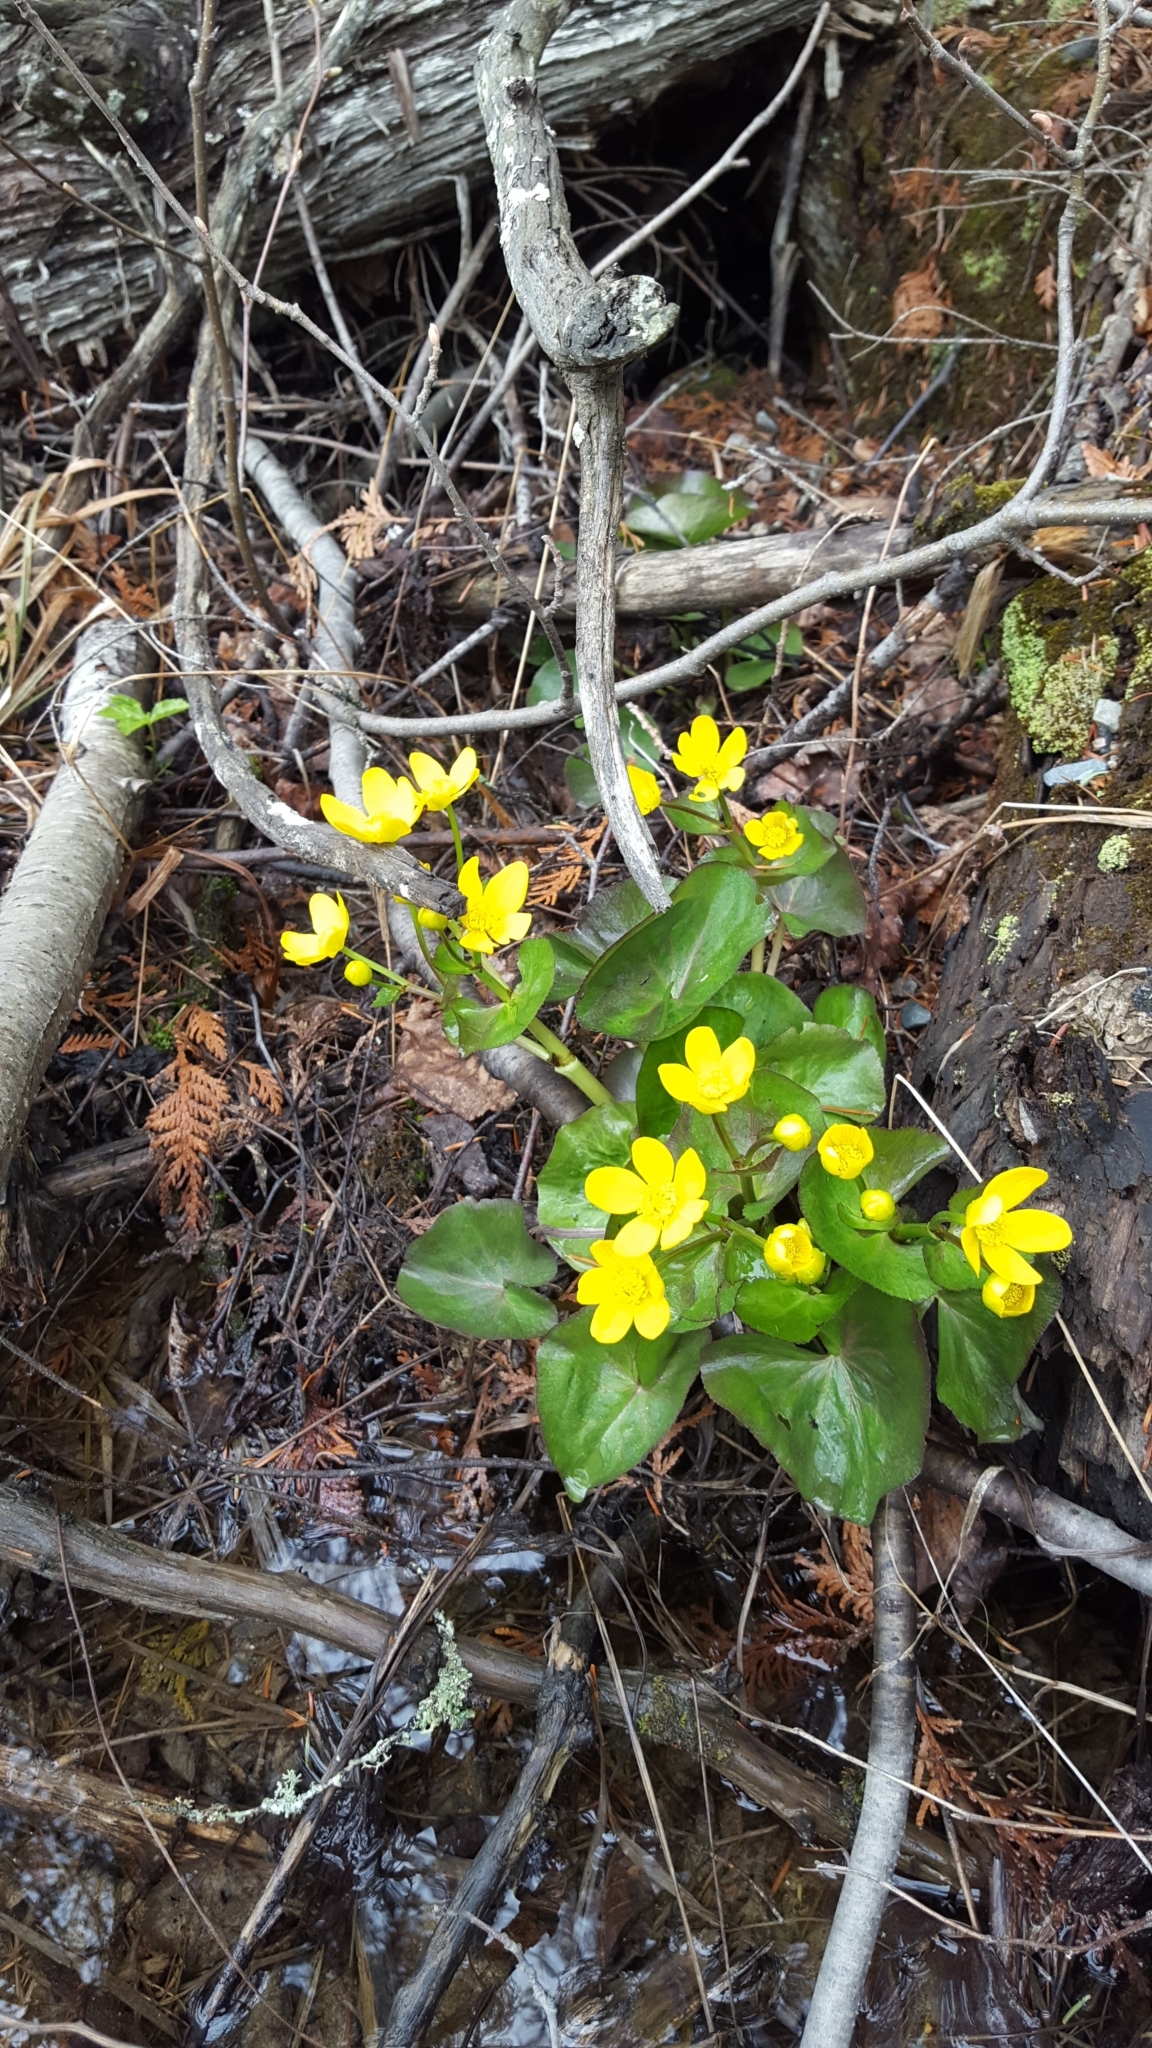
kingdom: Plantae
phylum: Tracheophyta
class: Magnoliopsida
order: Ranunculales
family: Ranunculaceae
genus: Caltha
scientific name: Caltha palustris
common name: Marsh marigold
